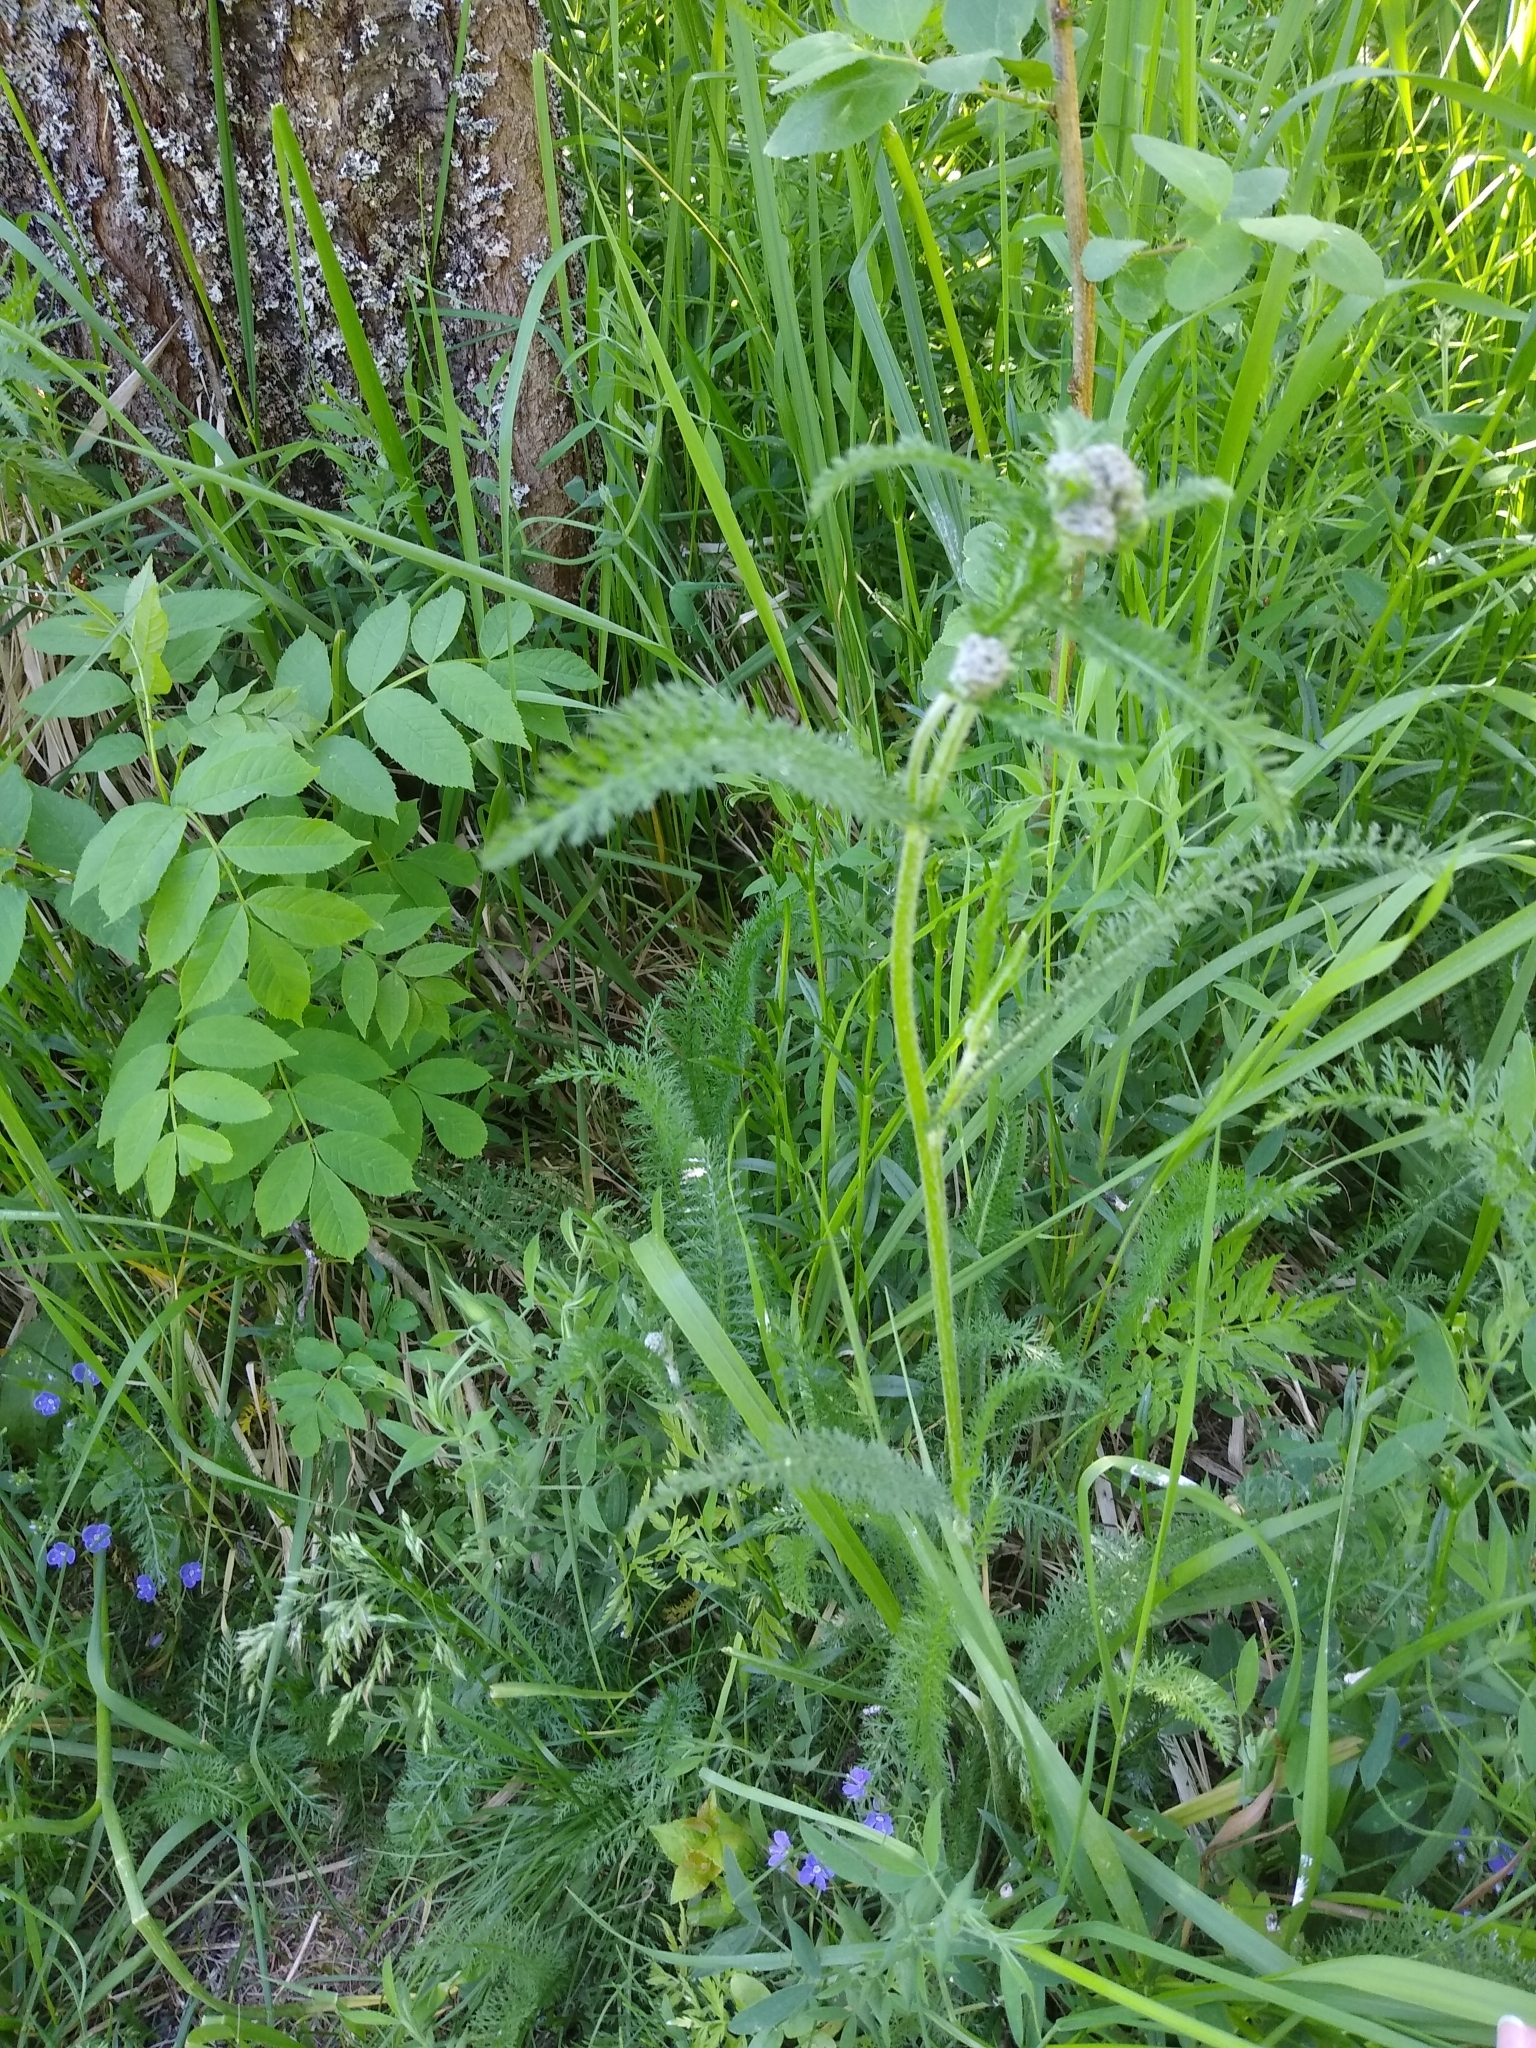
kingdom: Plantae
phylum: Tracheophyta
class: Magnoliopsida
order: Asterales
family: Asteraceae
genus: Achillea
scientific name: Achillea millefolium
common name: Yarrow
